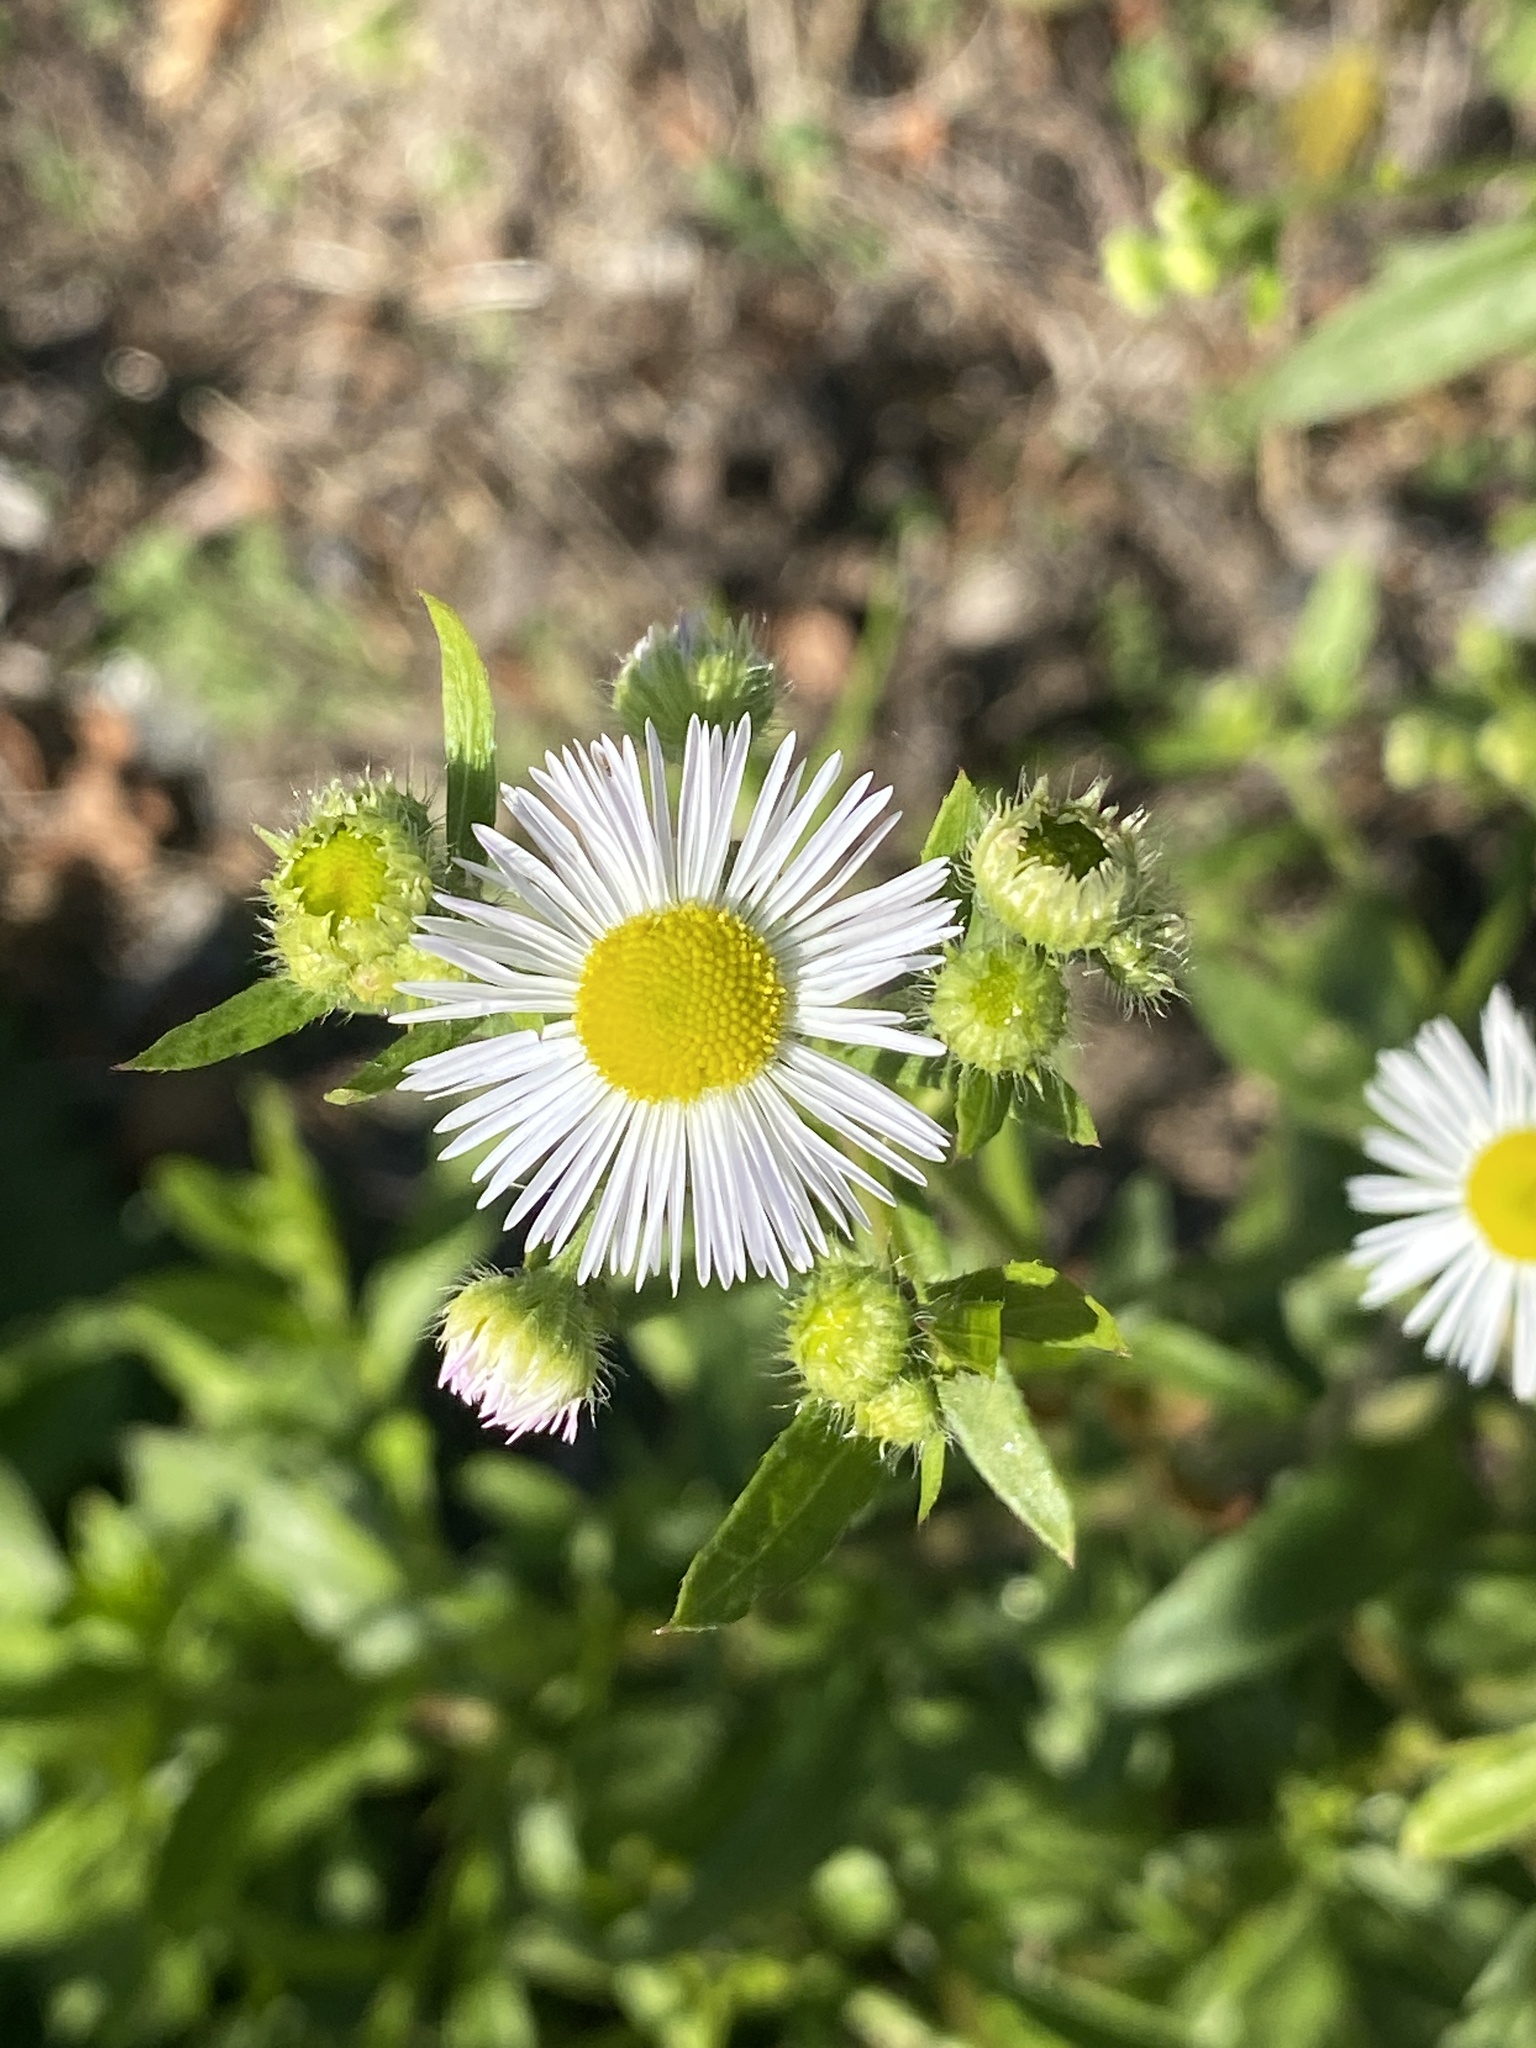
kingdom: Plantae
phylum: Tracheophyta
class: Magnoliopsida
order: Asterales
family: Asteraceae
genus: Erigeron
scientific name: Erigeron annuus
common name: Tall fleabane
